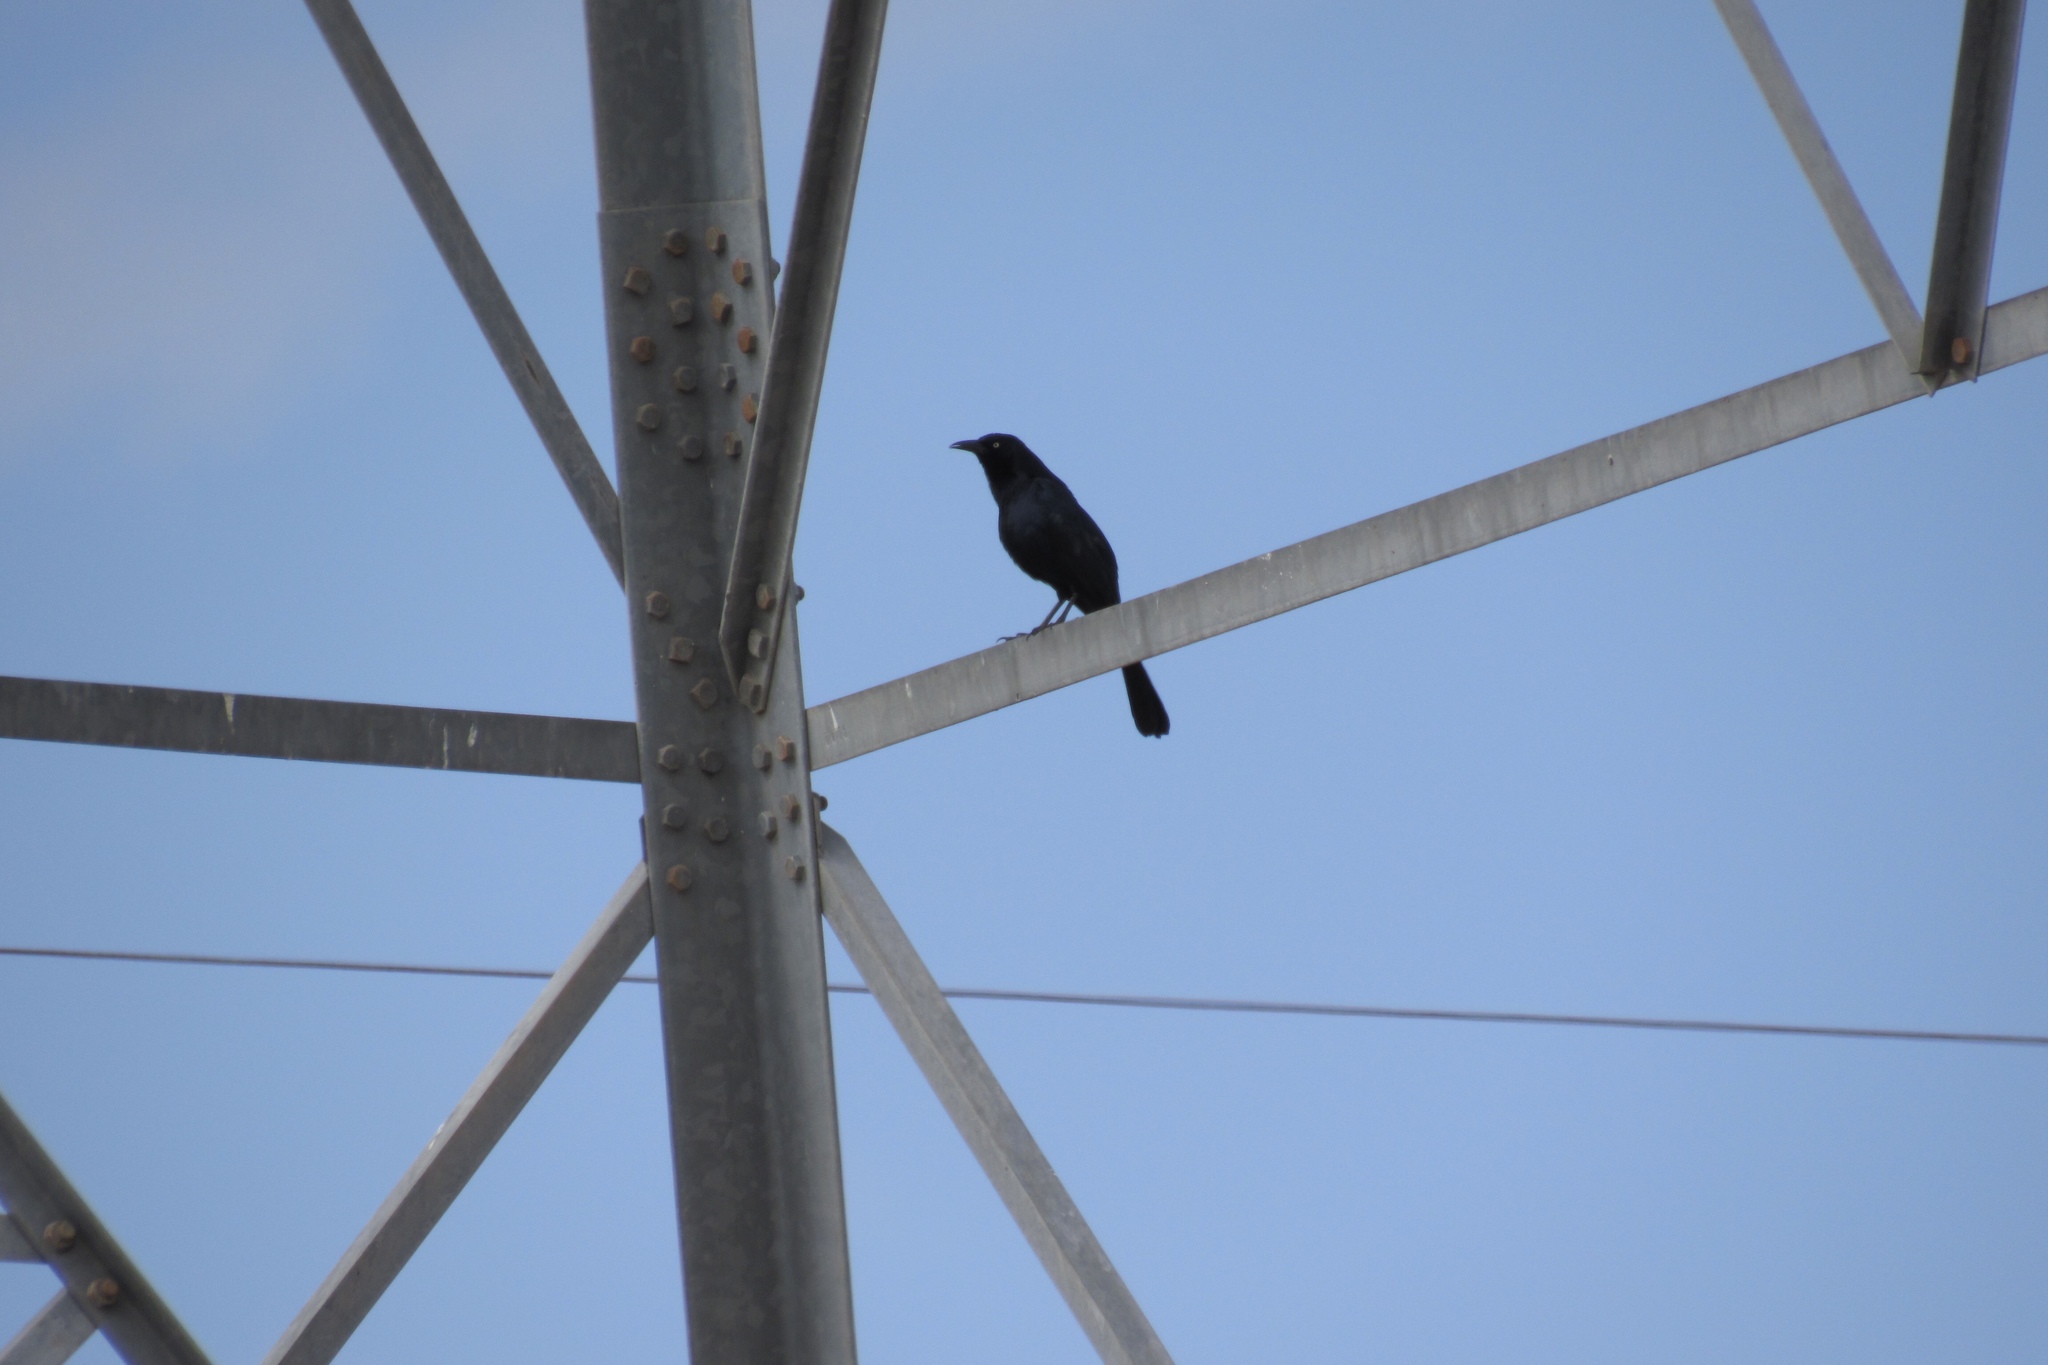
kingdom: Animalia
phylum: Chordata
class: Aves
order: Passeriformes
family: Icteridae
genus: Quiscalus
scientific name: Quiscalus mexicanus
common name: Great-tailed grackle
